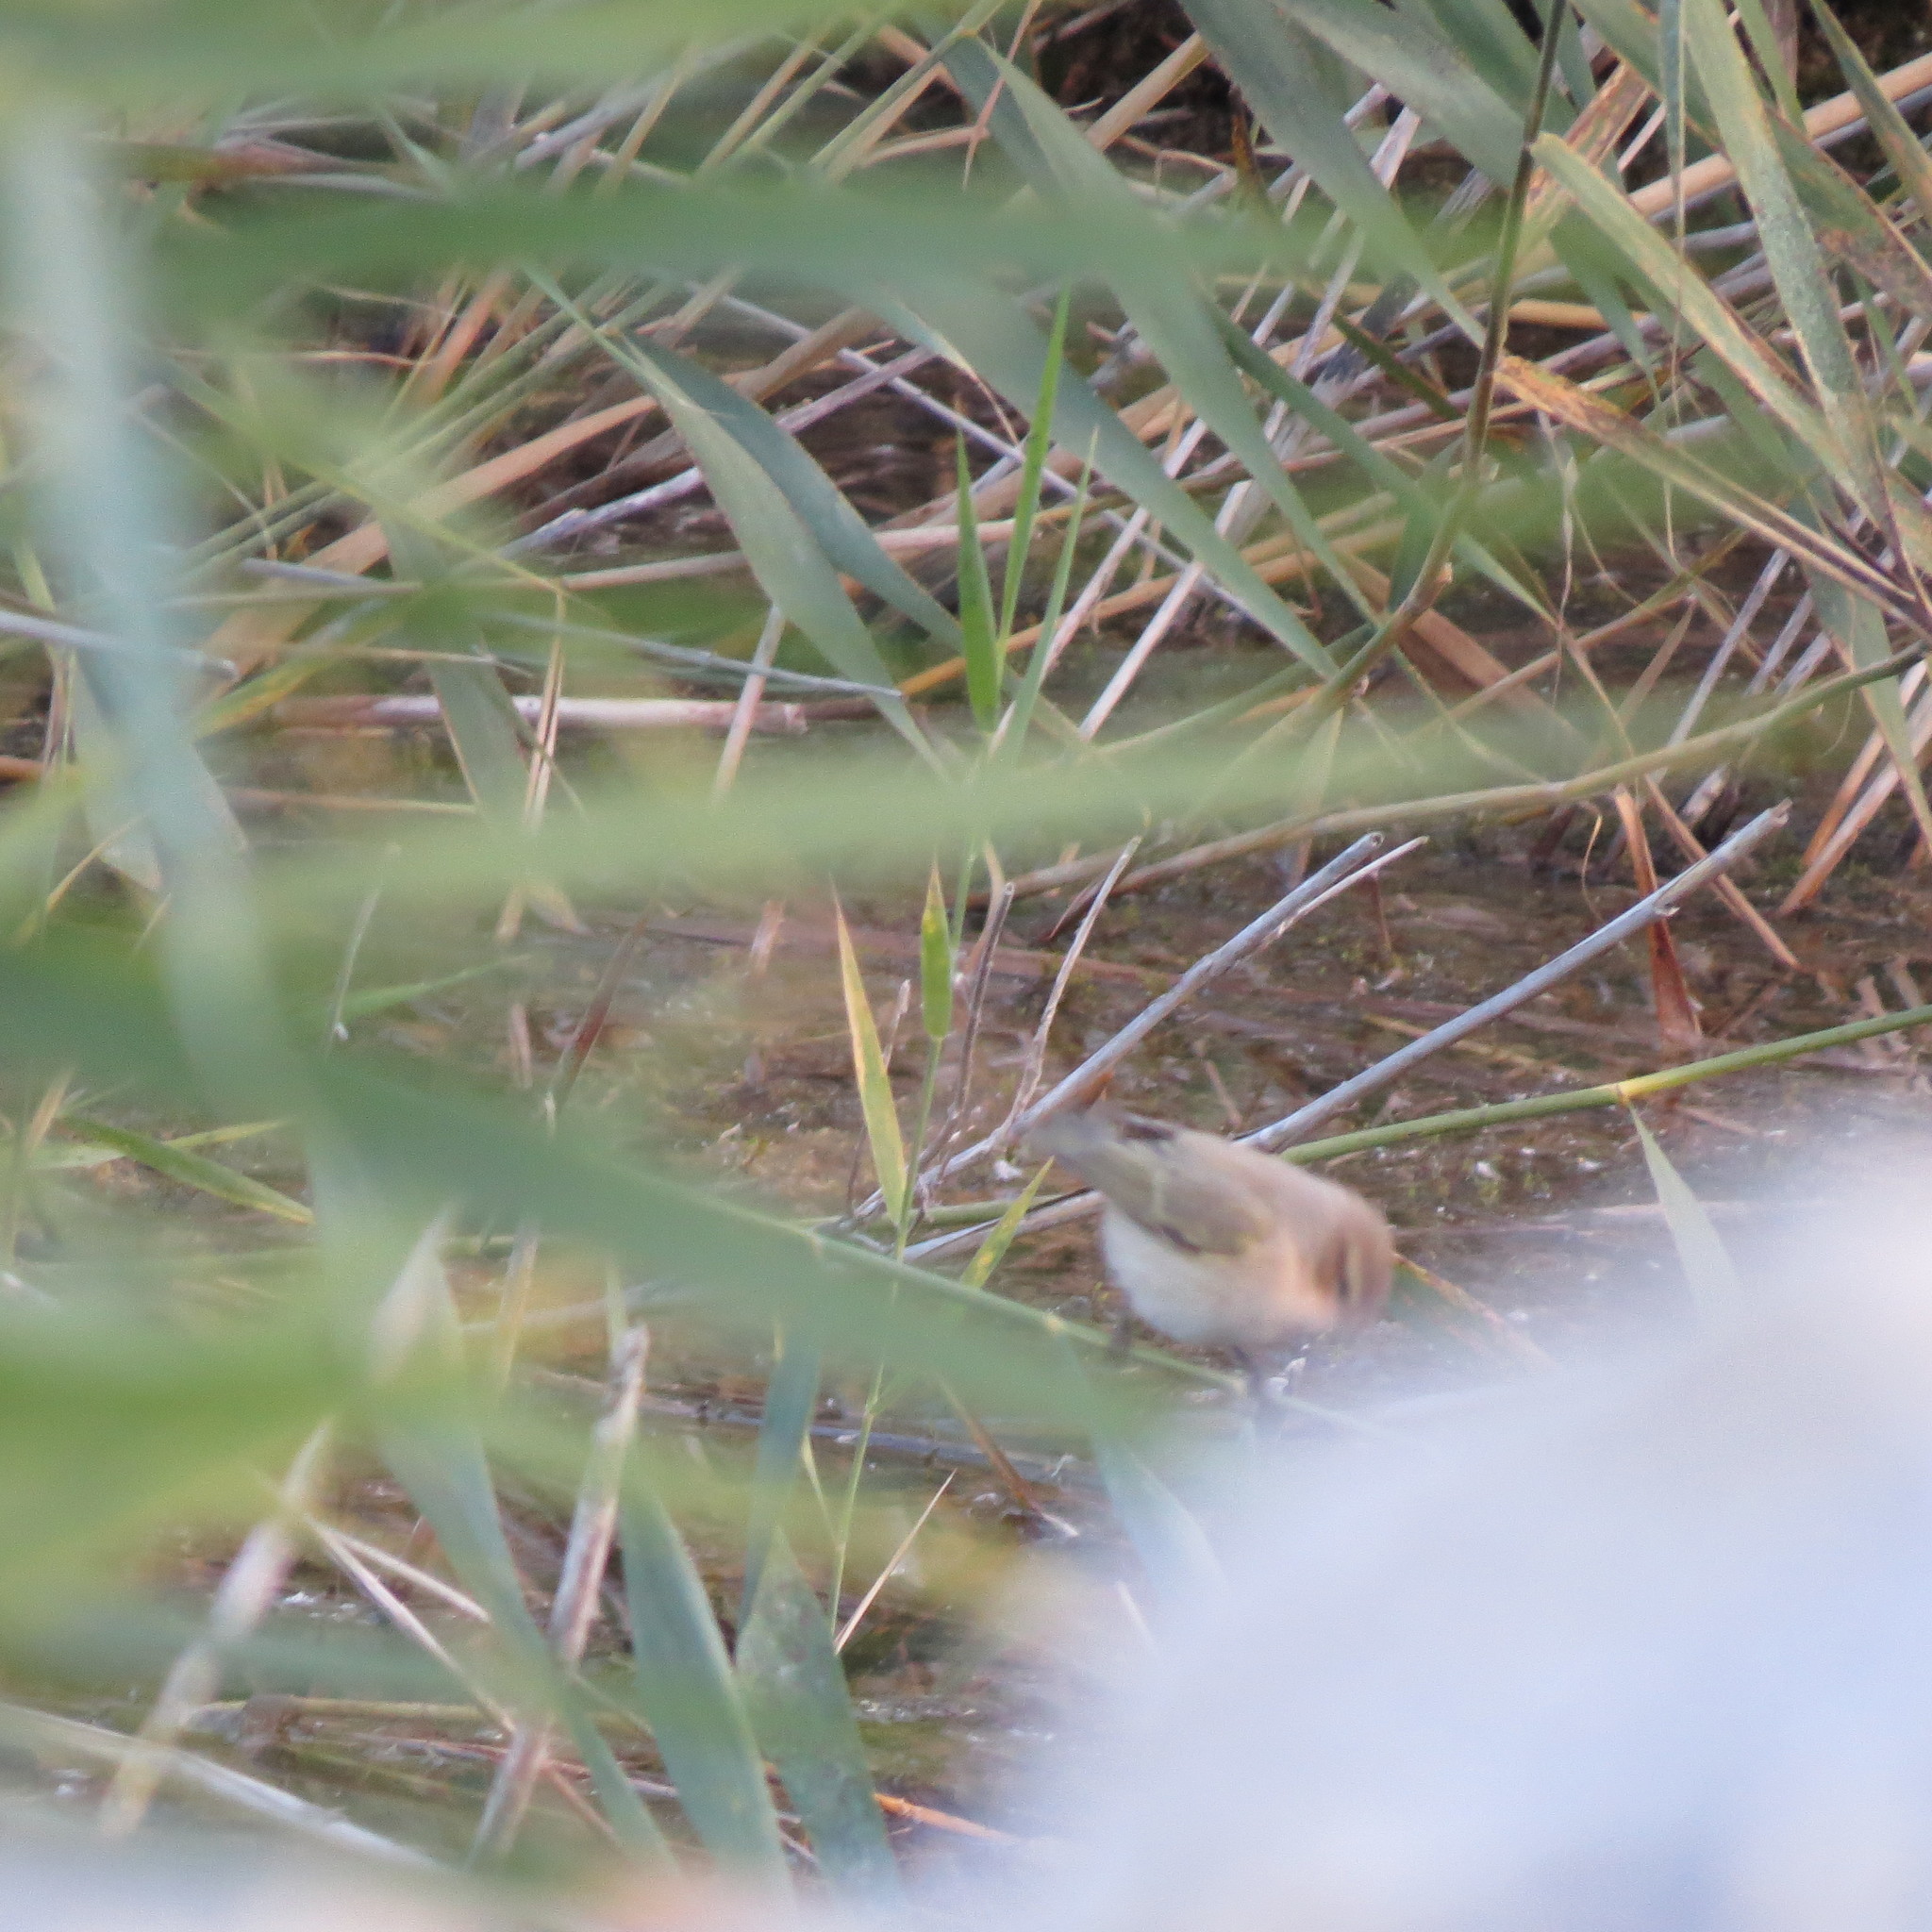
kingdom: Animalia
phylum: Chordata
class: Aves
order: Passeriformes
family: Phylloscopidae
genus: Phylloscopus
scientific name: Phylloscopus collybita
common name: Common chiffchaff
